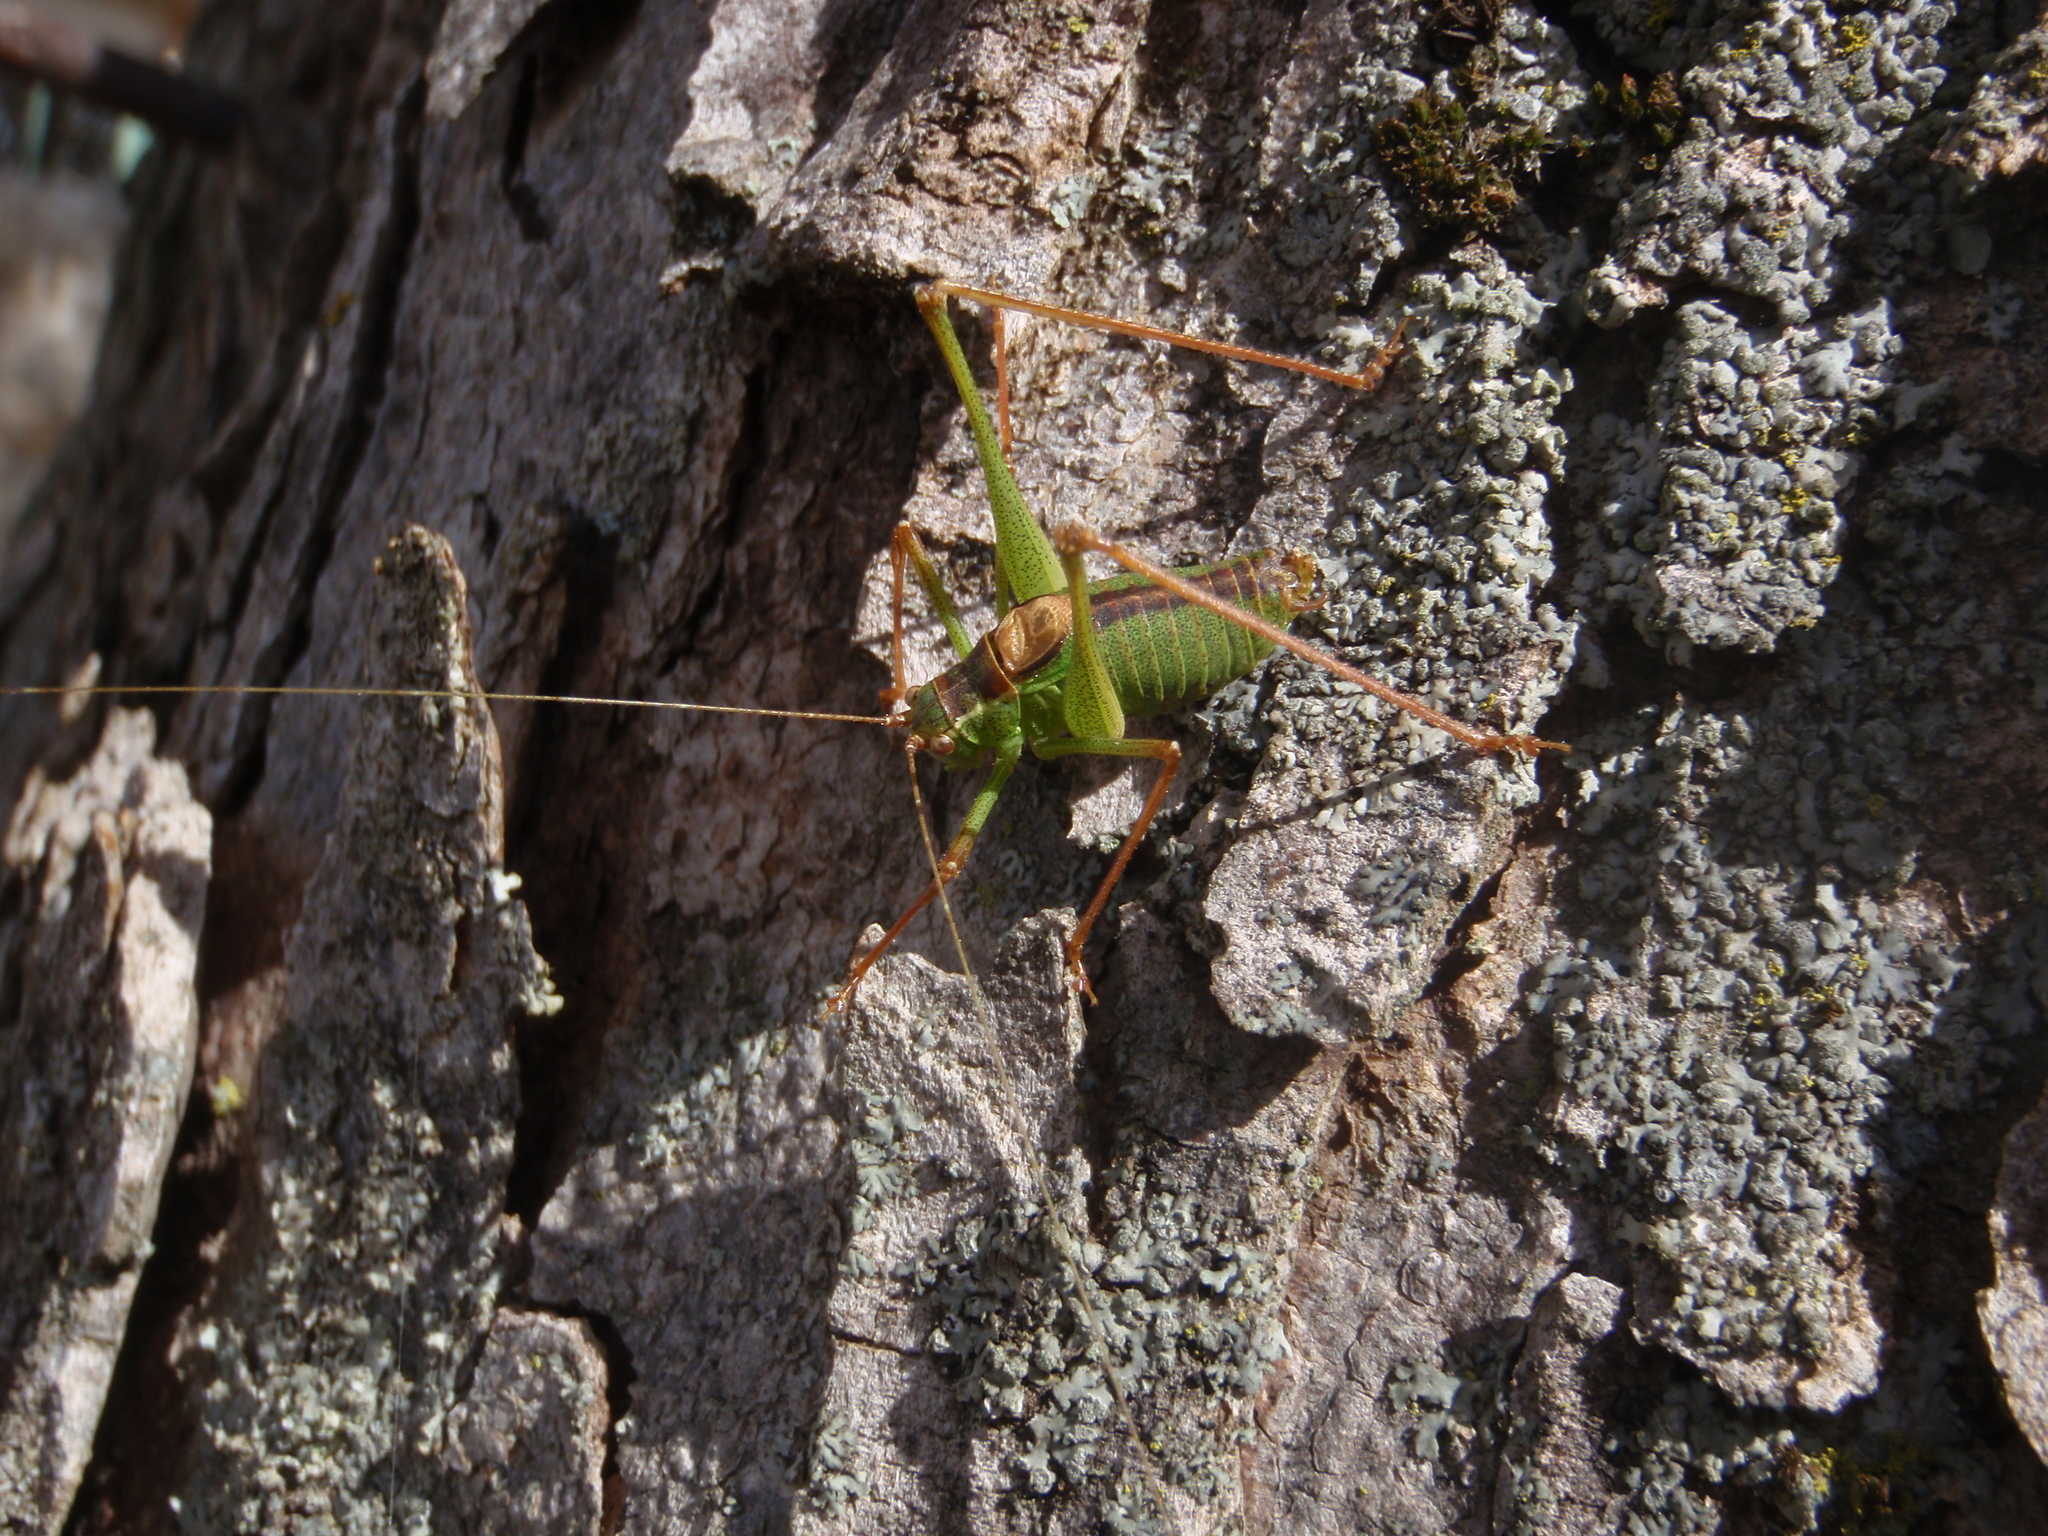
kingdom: Animalia
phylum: Arthropoda
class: Insecta
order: Orthoptera
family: Tettigoniidae
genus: Leptophyes
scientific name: Leptophyes punctatissima
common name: Speckled bush-cricket
